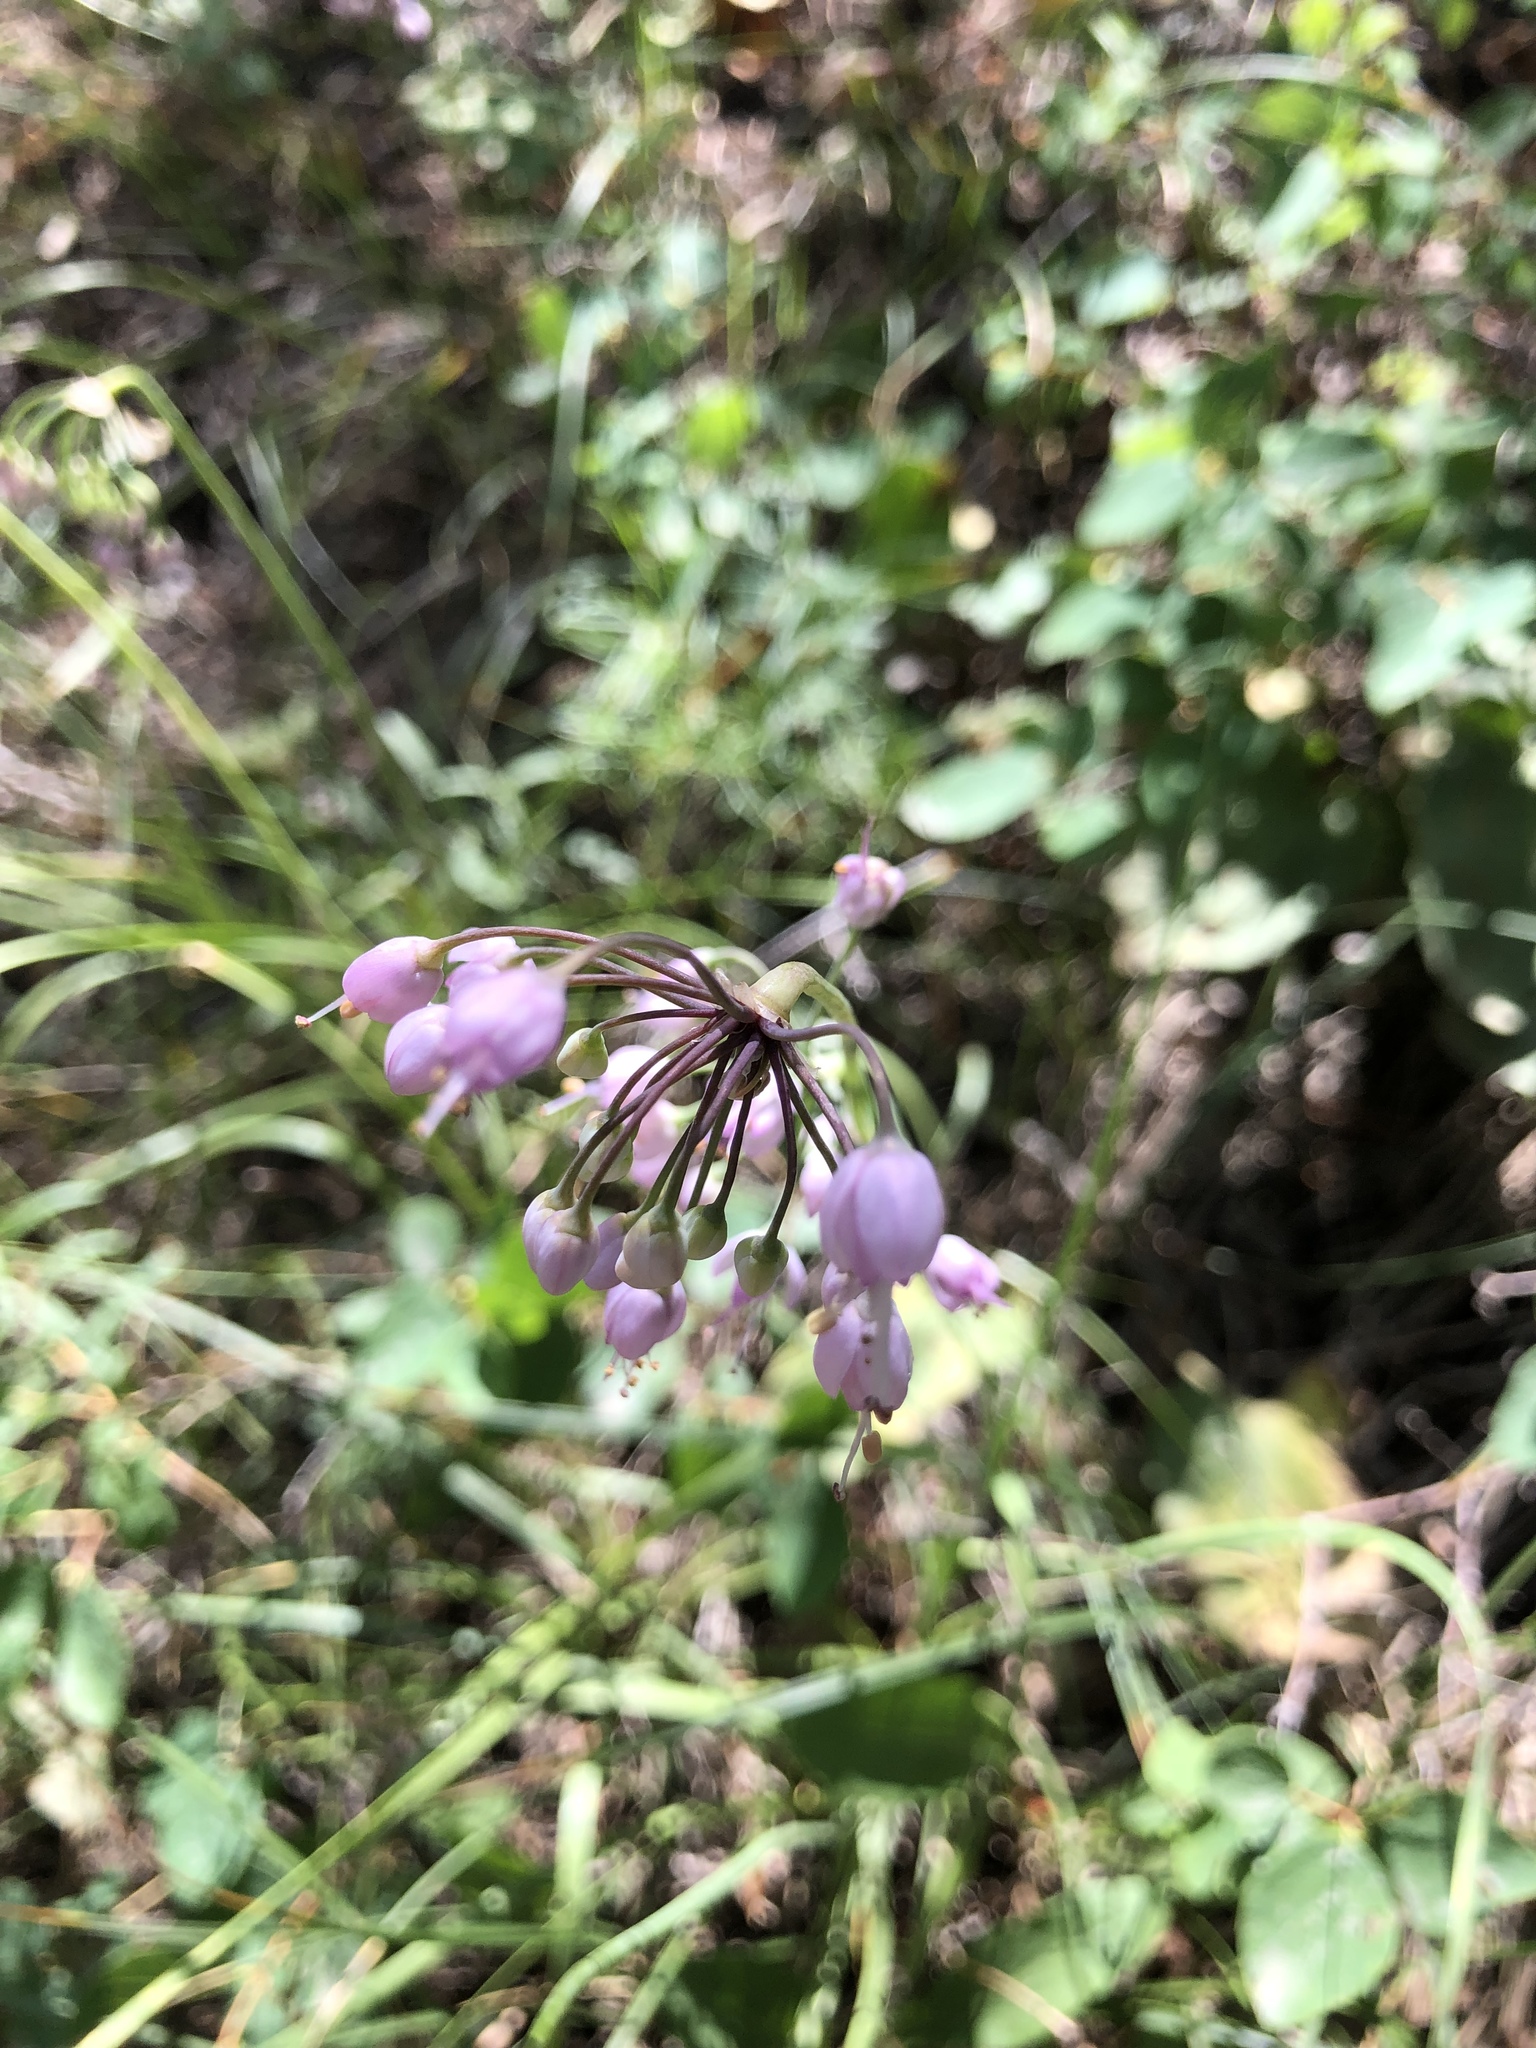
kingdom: Plantae
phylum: Tracheophyta
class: Liliopsida
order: Asparagales
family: Amaryllidaceae
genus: Allium
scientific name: Allium cernuum
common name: Nodding onion
